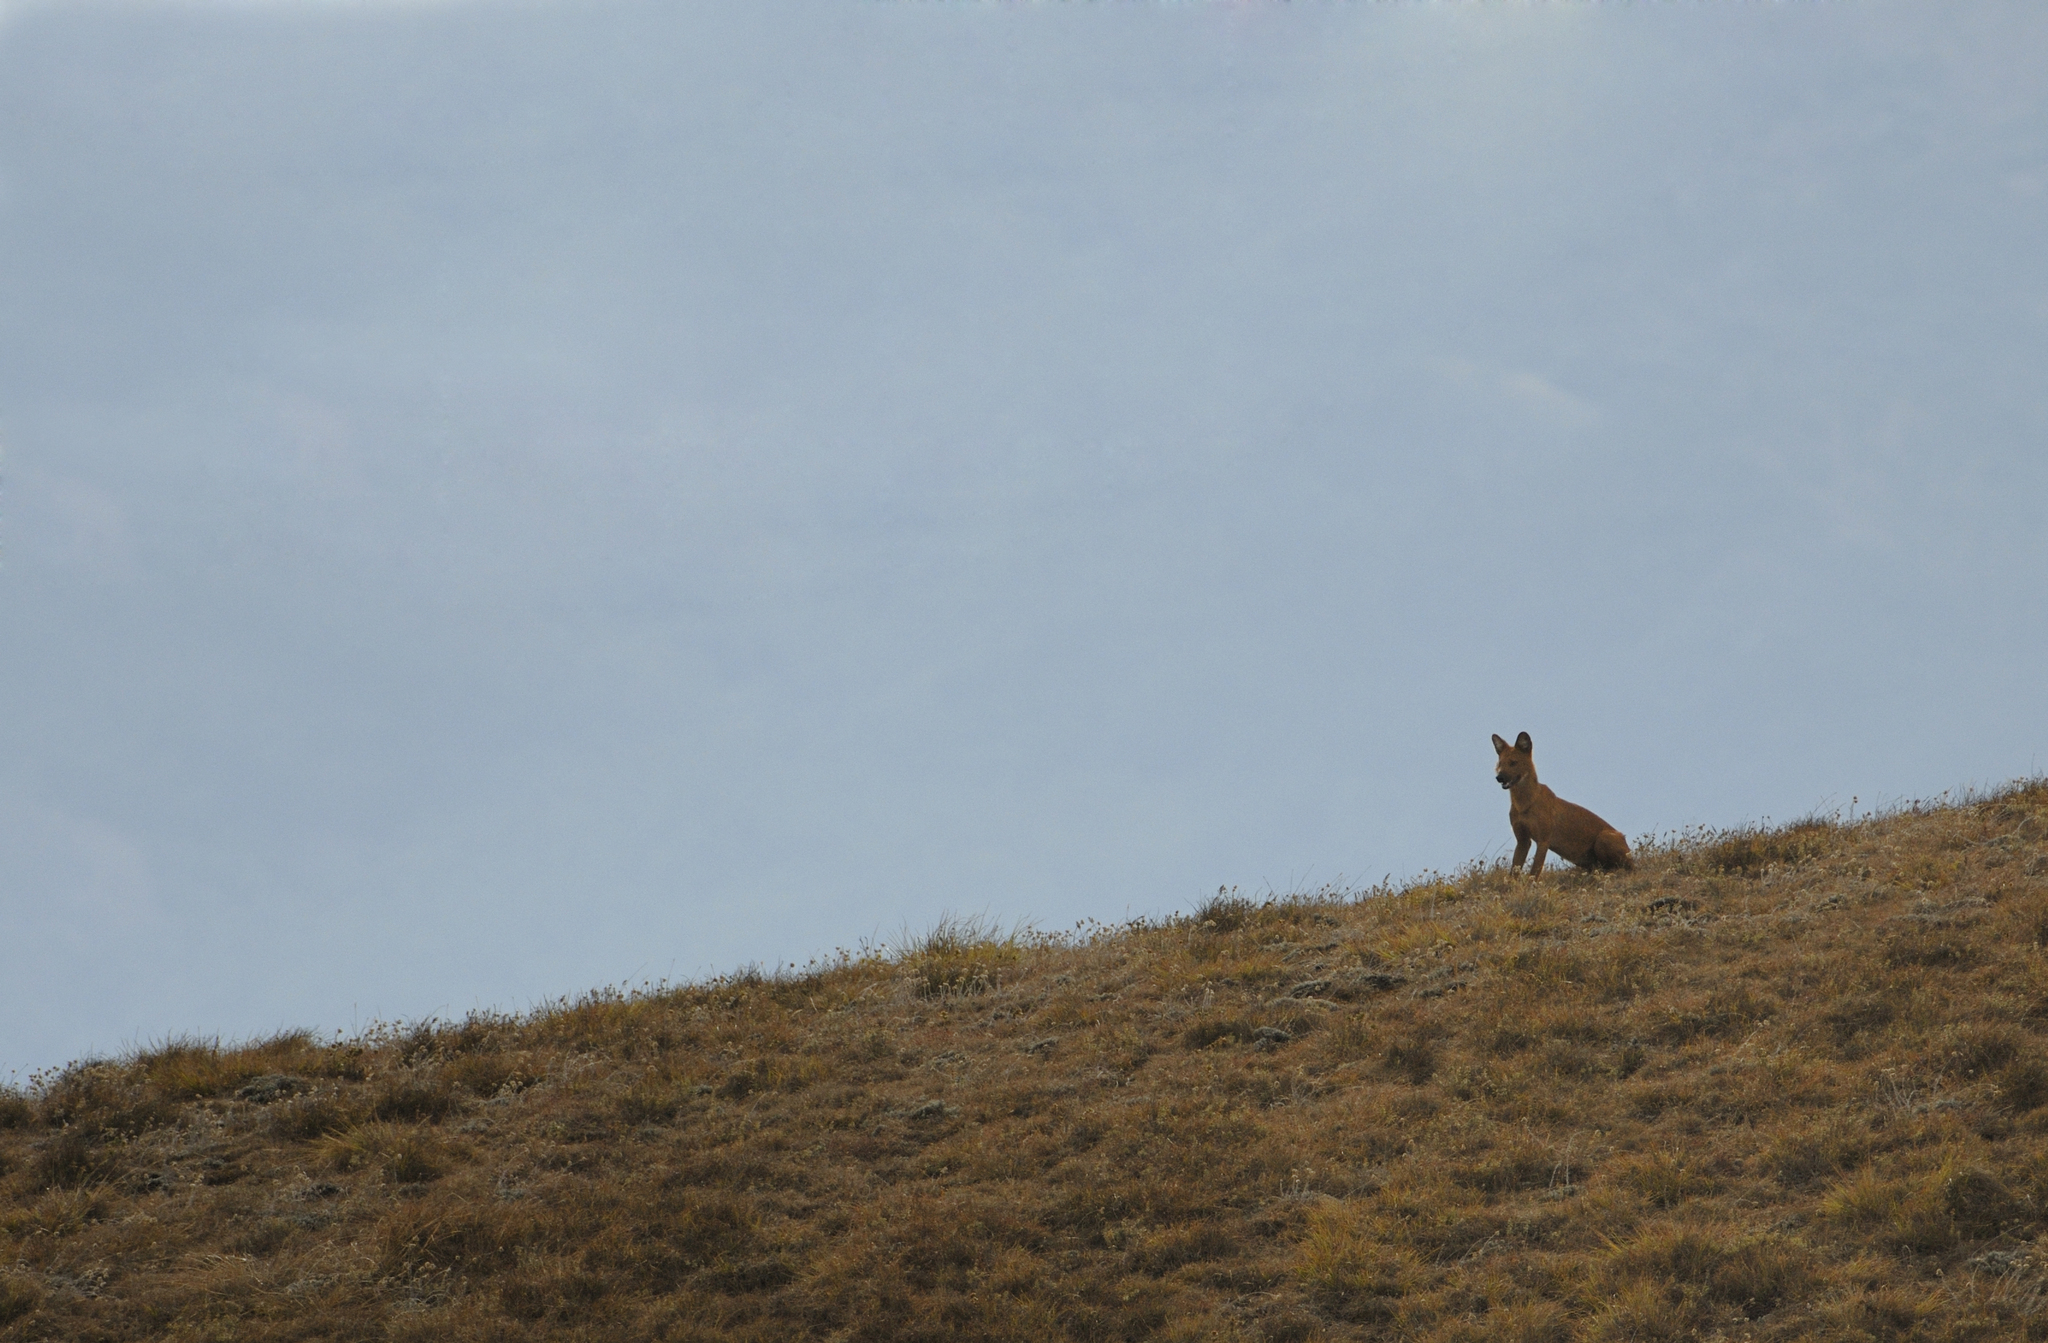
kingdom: Animalia
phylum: Chordata
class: Mammalia
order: Carnivora
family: Canidae
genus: Cuon
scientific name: Cuon alpinus
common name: Dhole
